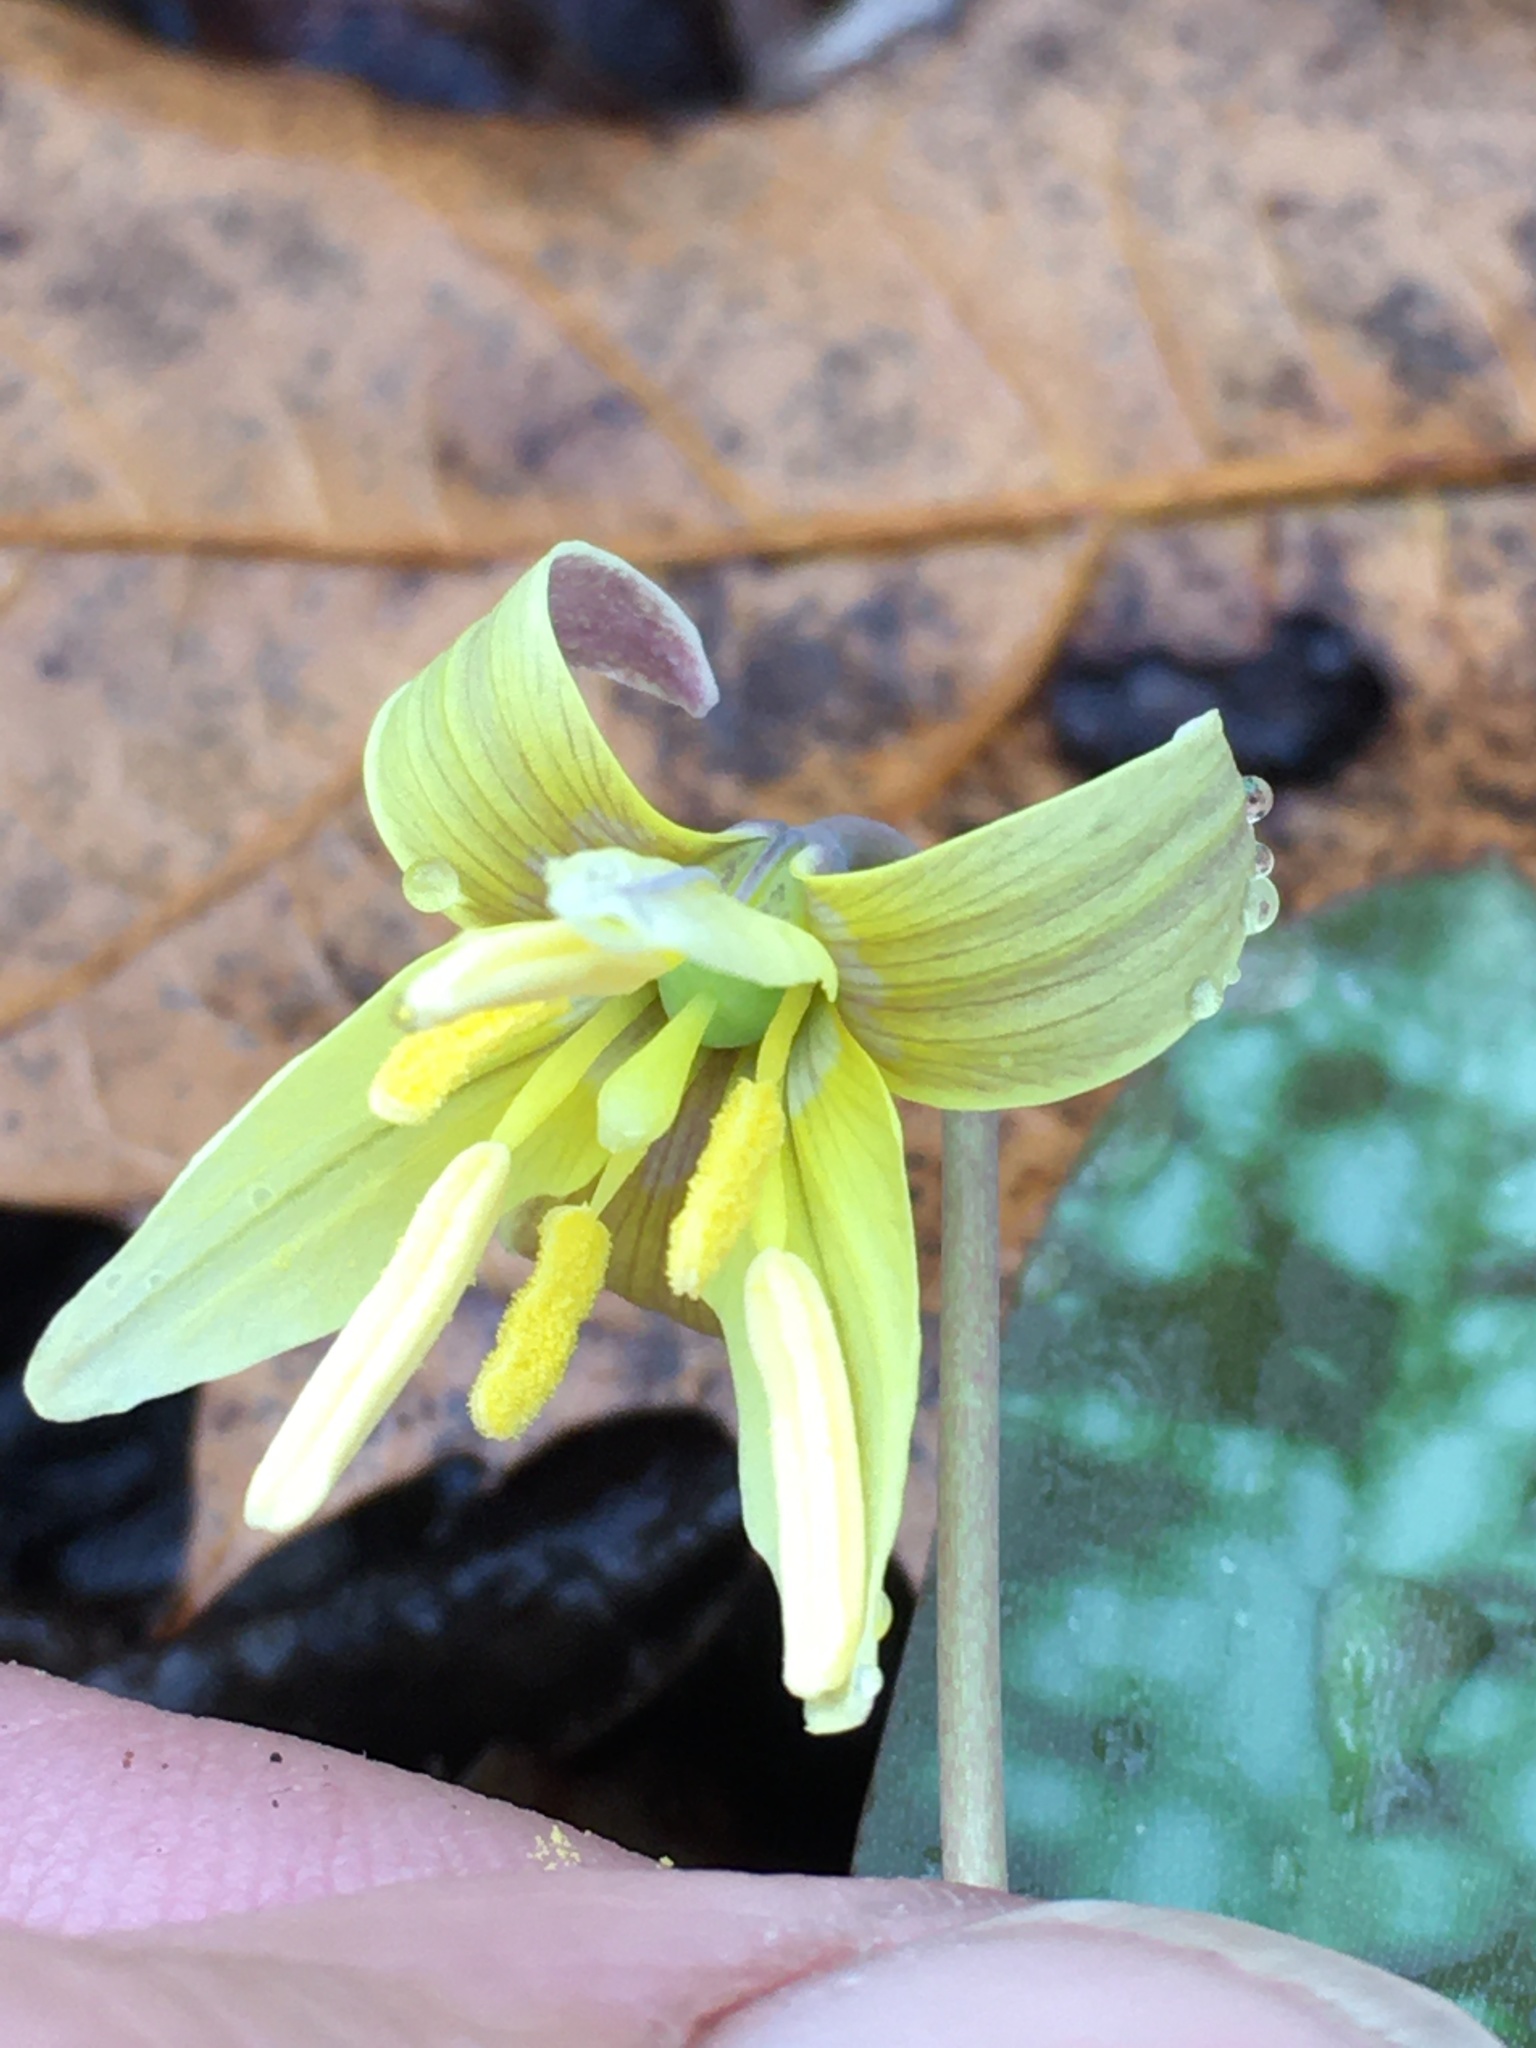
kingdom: Plantae
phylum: Tracheophyta
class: Liliopsida
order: Liliales
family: Liliaceae
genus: Erythronium
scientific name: Erythronium umbilicatum
